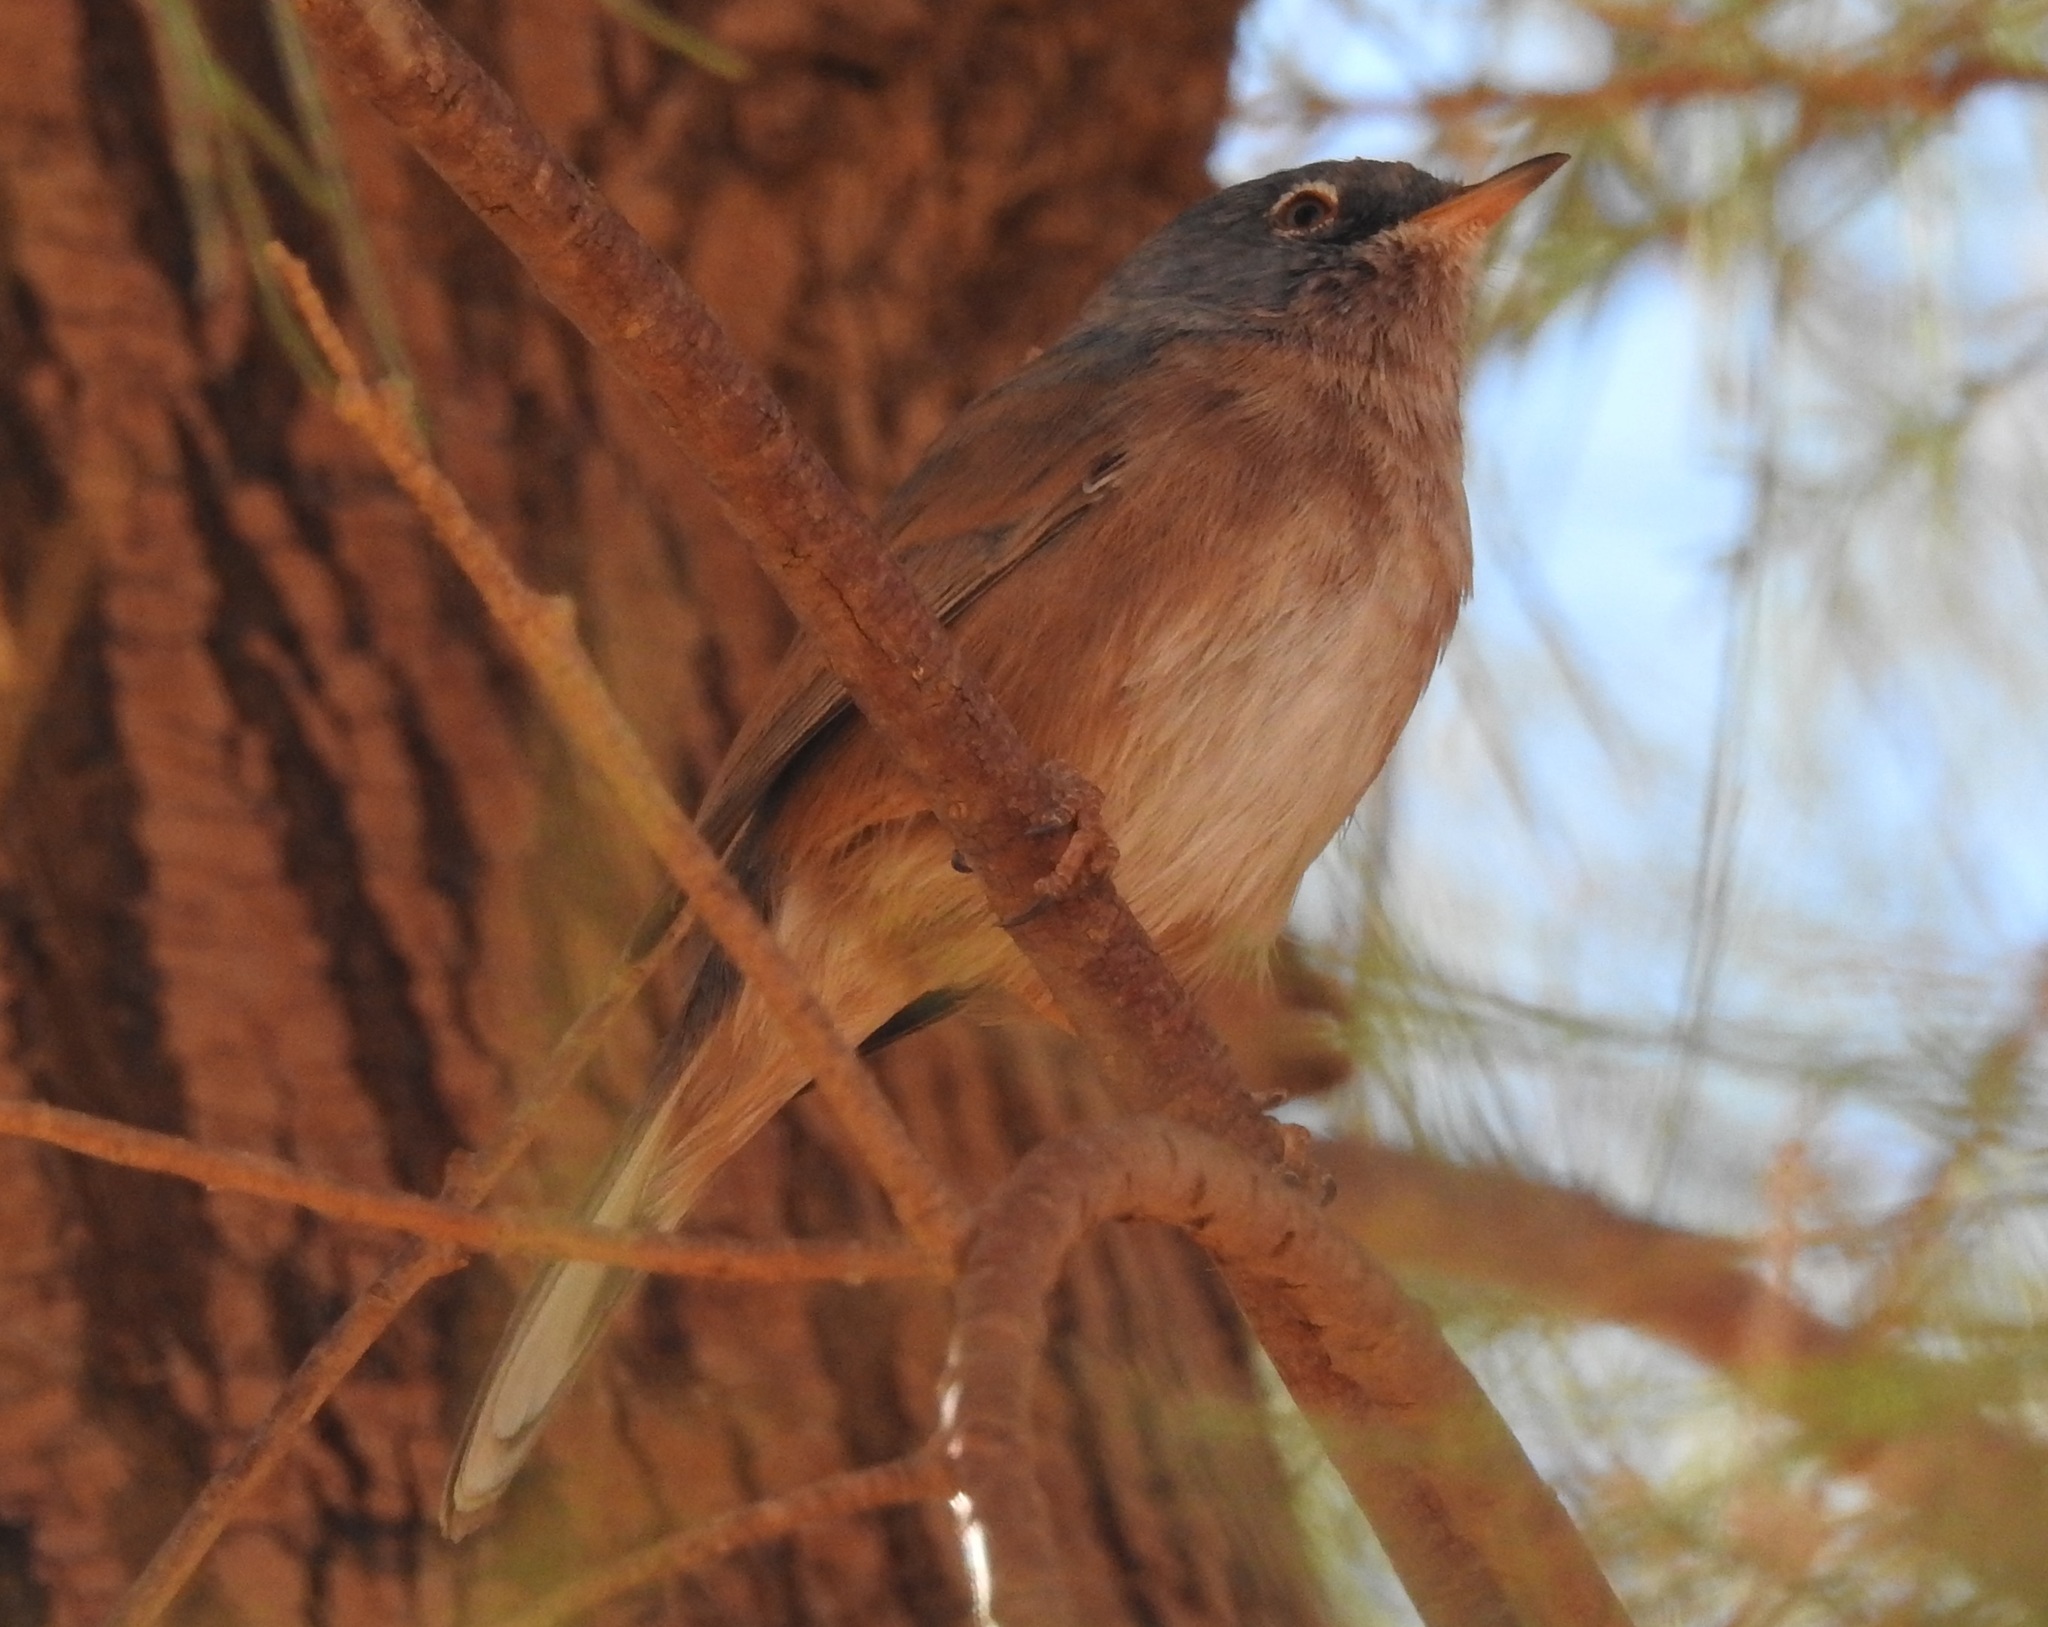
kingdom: Animalia
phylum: Chordata
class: Aves
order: Passeriformes
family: Sylviidae
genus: Sylvia
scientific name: Sylvia deserticola
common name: Tristram's warbler
